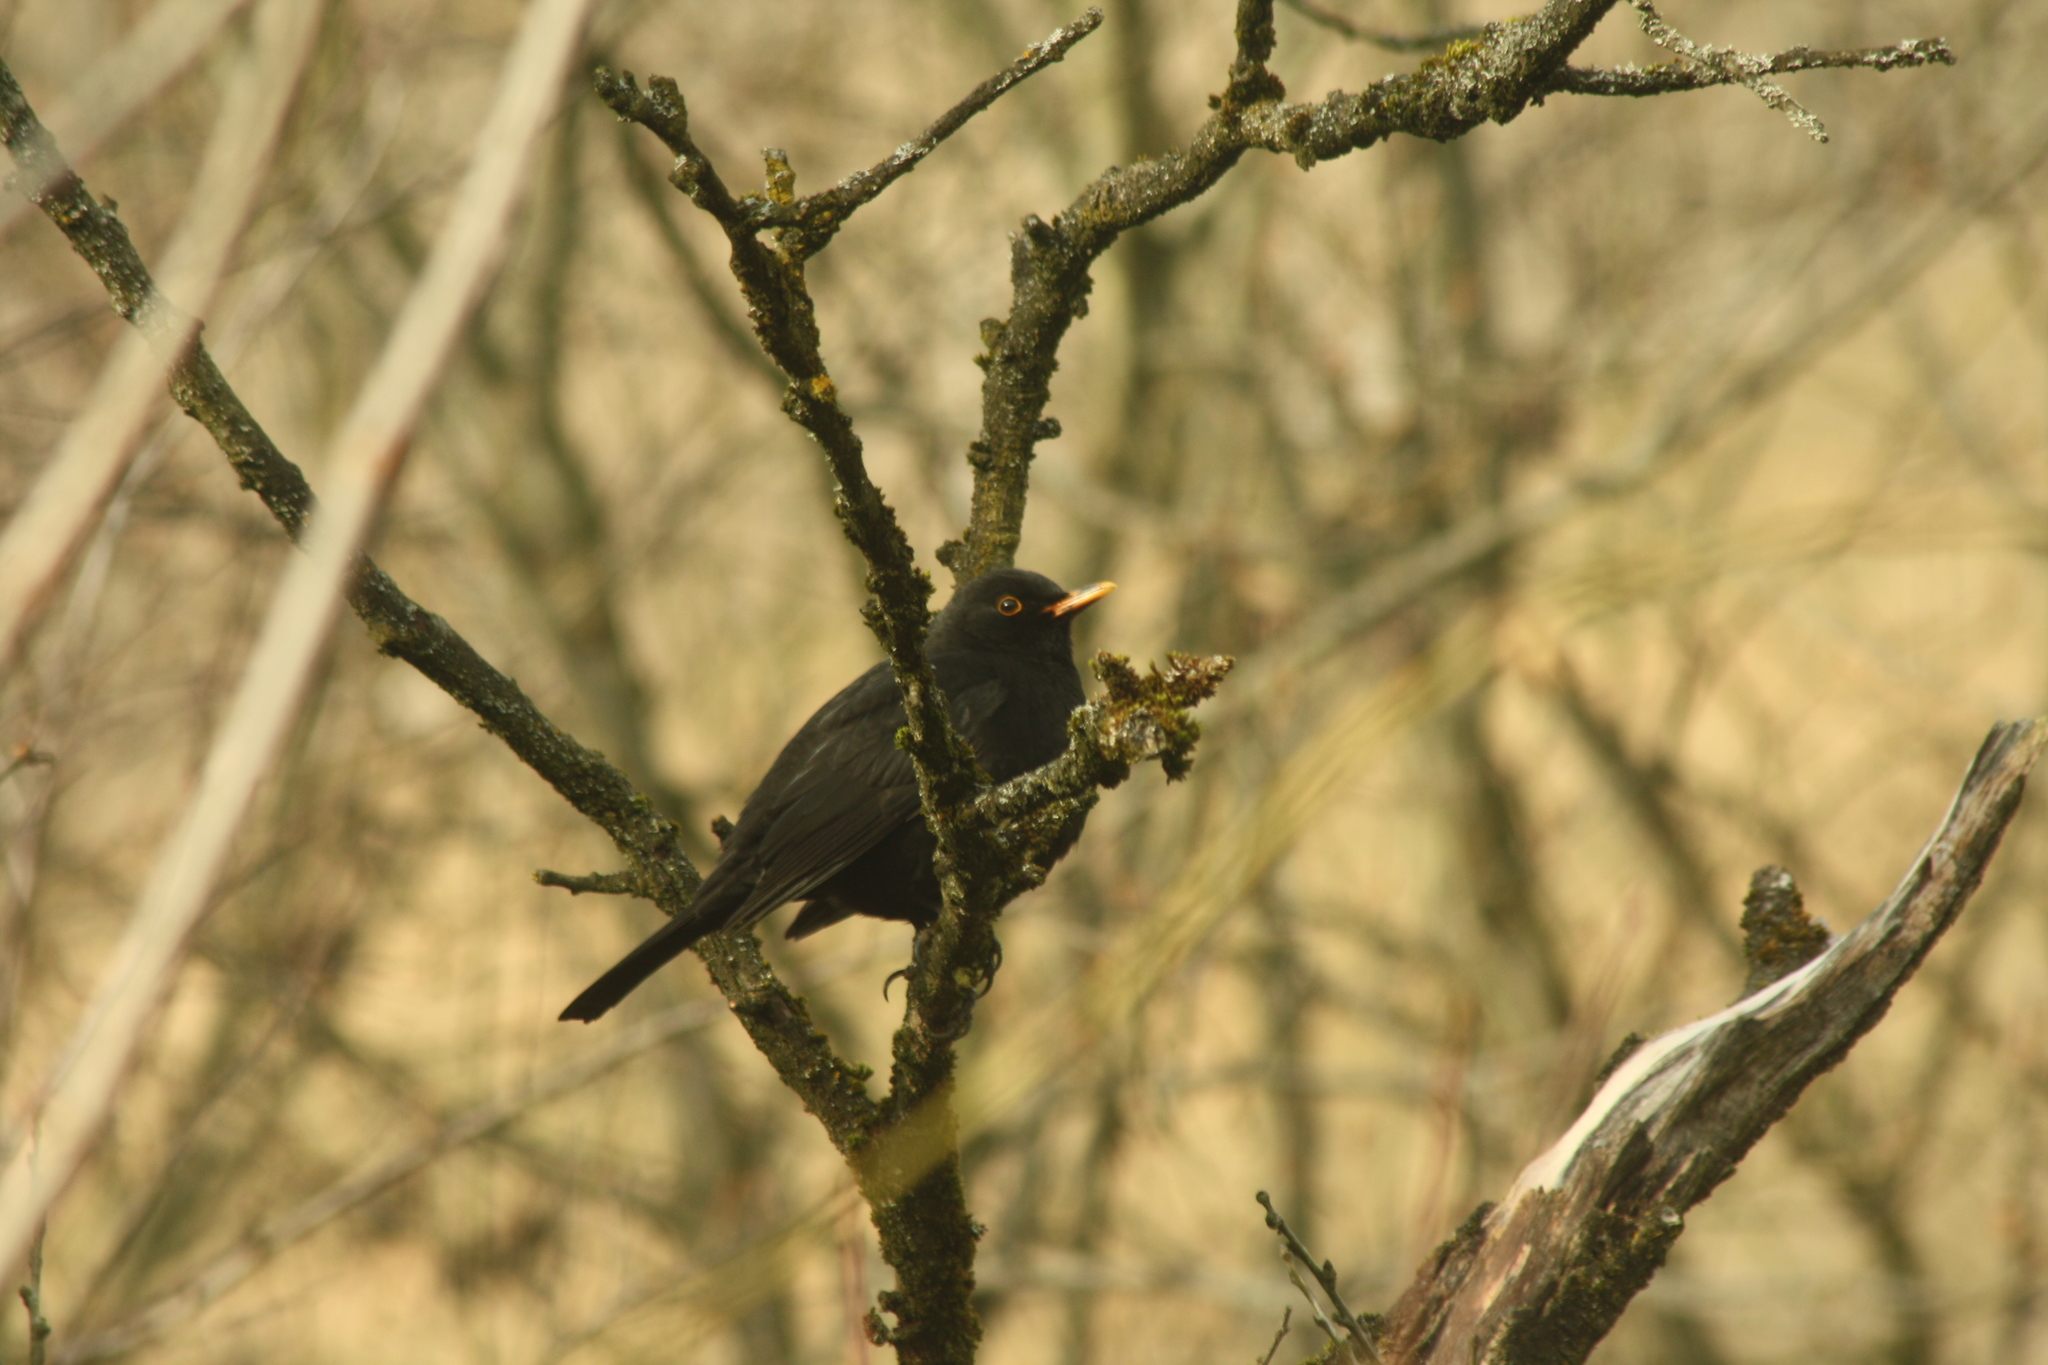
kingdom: Animalia
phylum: Chordata
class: Aves
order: Passeriformes
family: Turdidae
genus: Turdus
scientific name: Turdus merula
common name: Common blackbird
